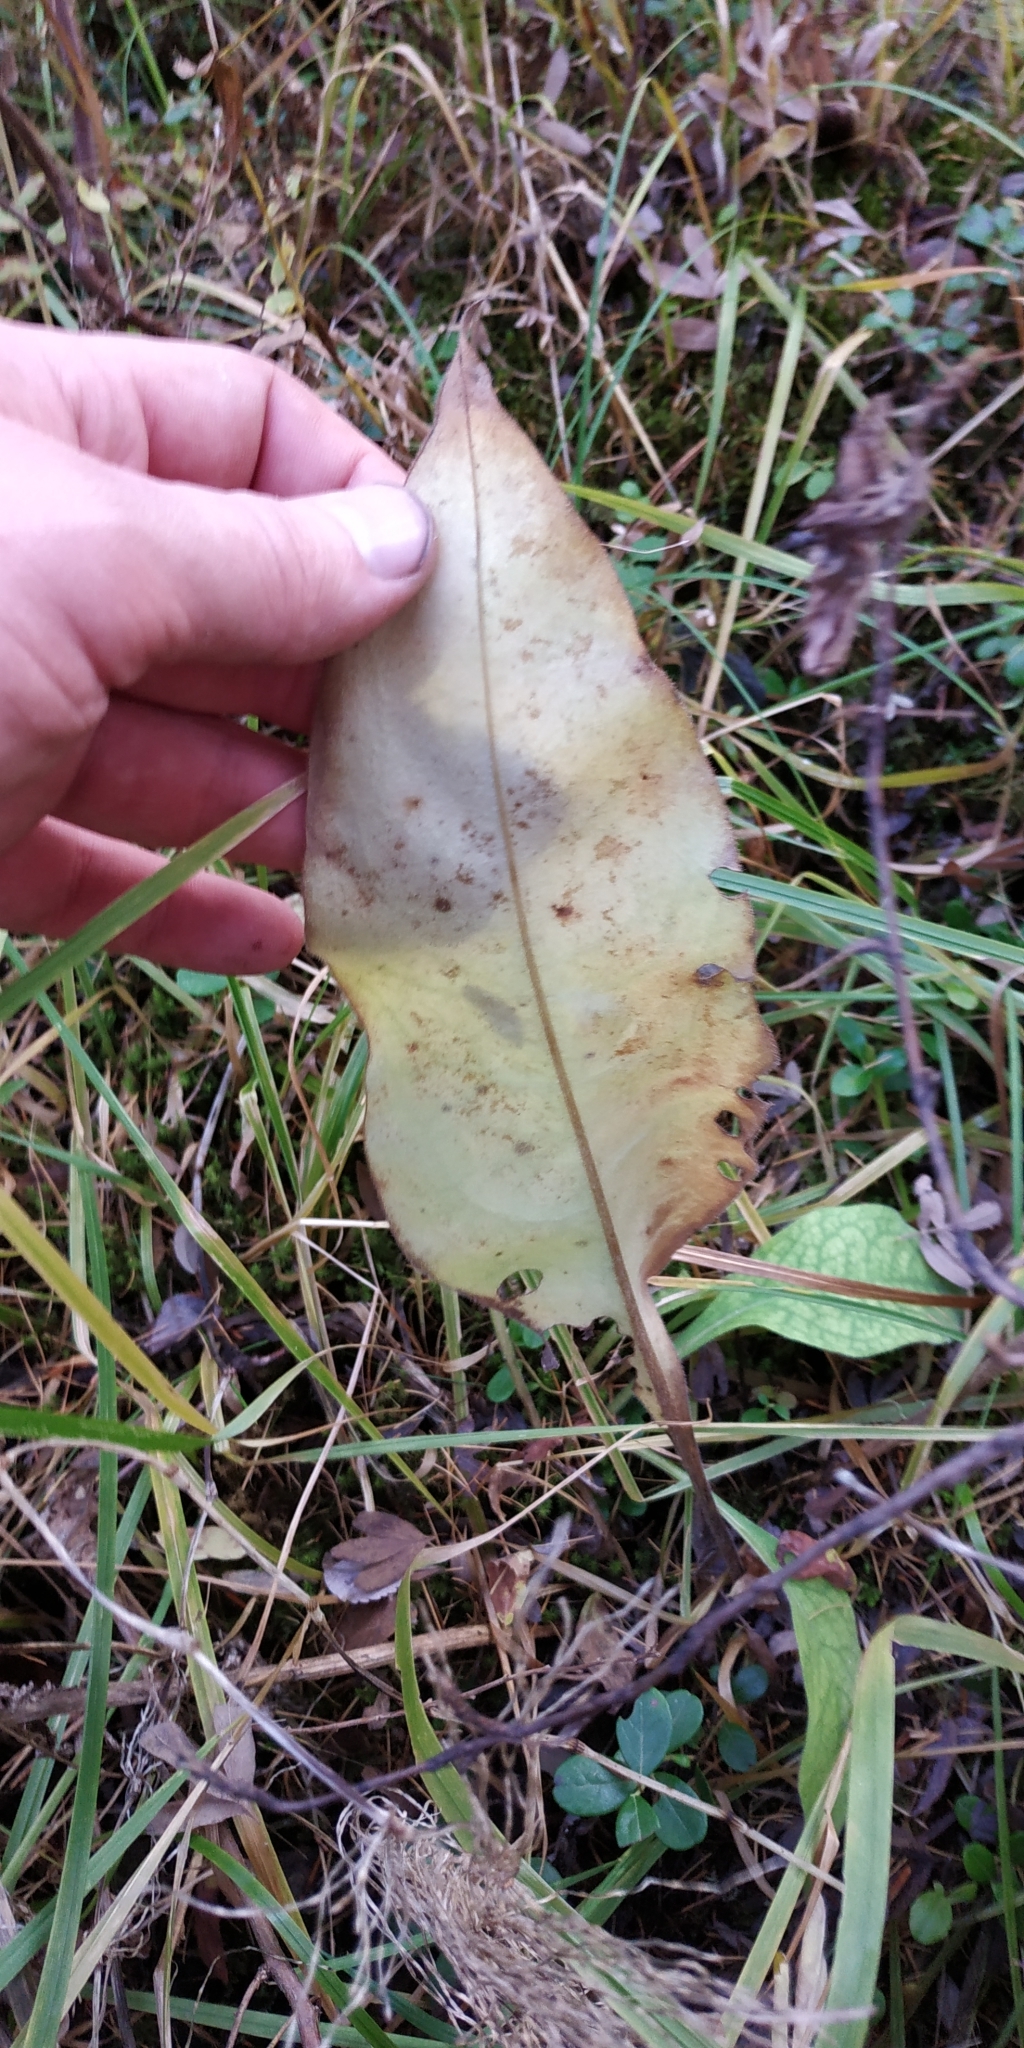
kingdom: Plantae
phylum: Tracheophyta
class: Magnoliopsida
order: Boraginales
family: Boraginaceae
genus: Pulmonaria
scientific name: Pulmonaria mollis
